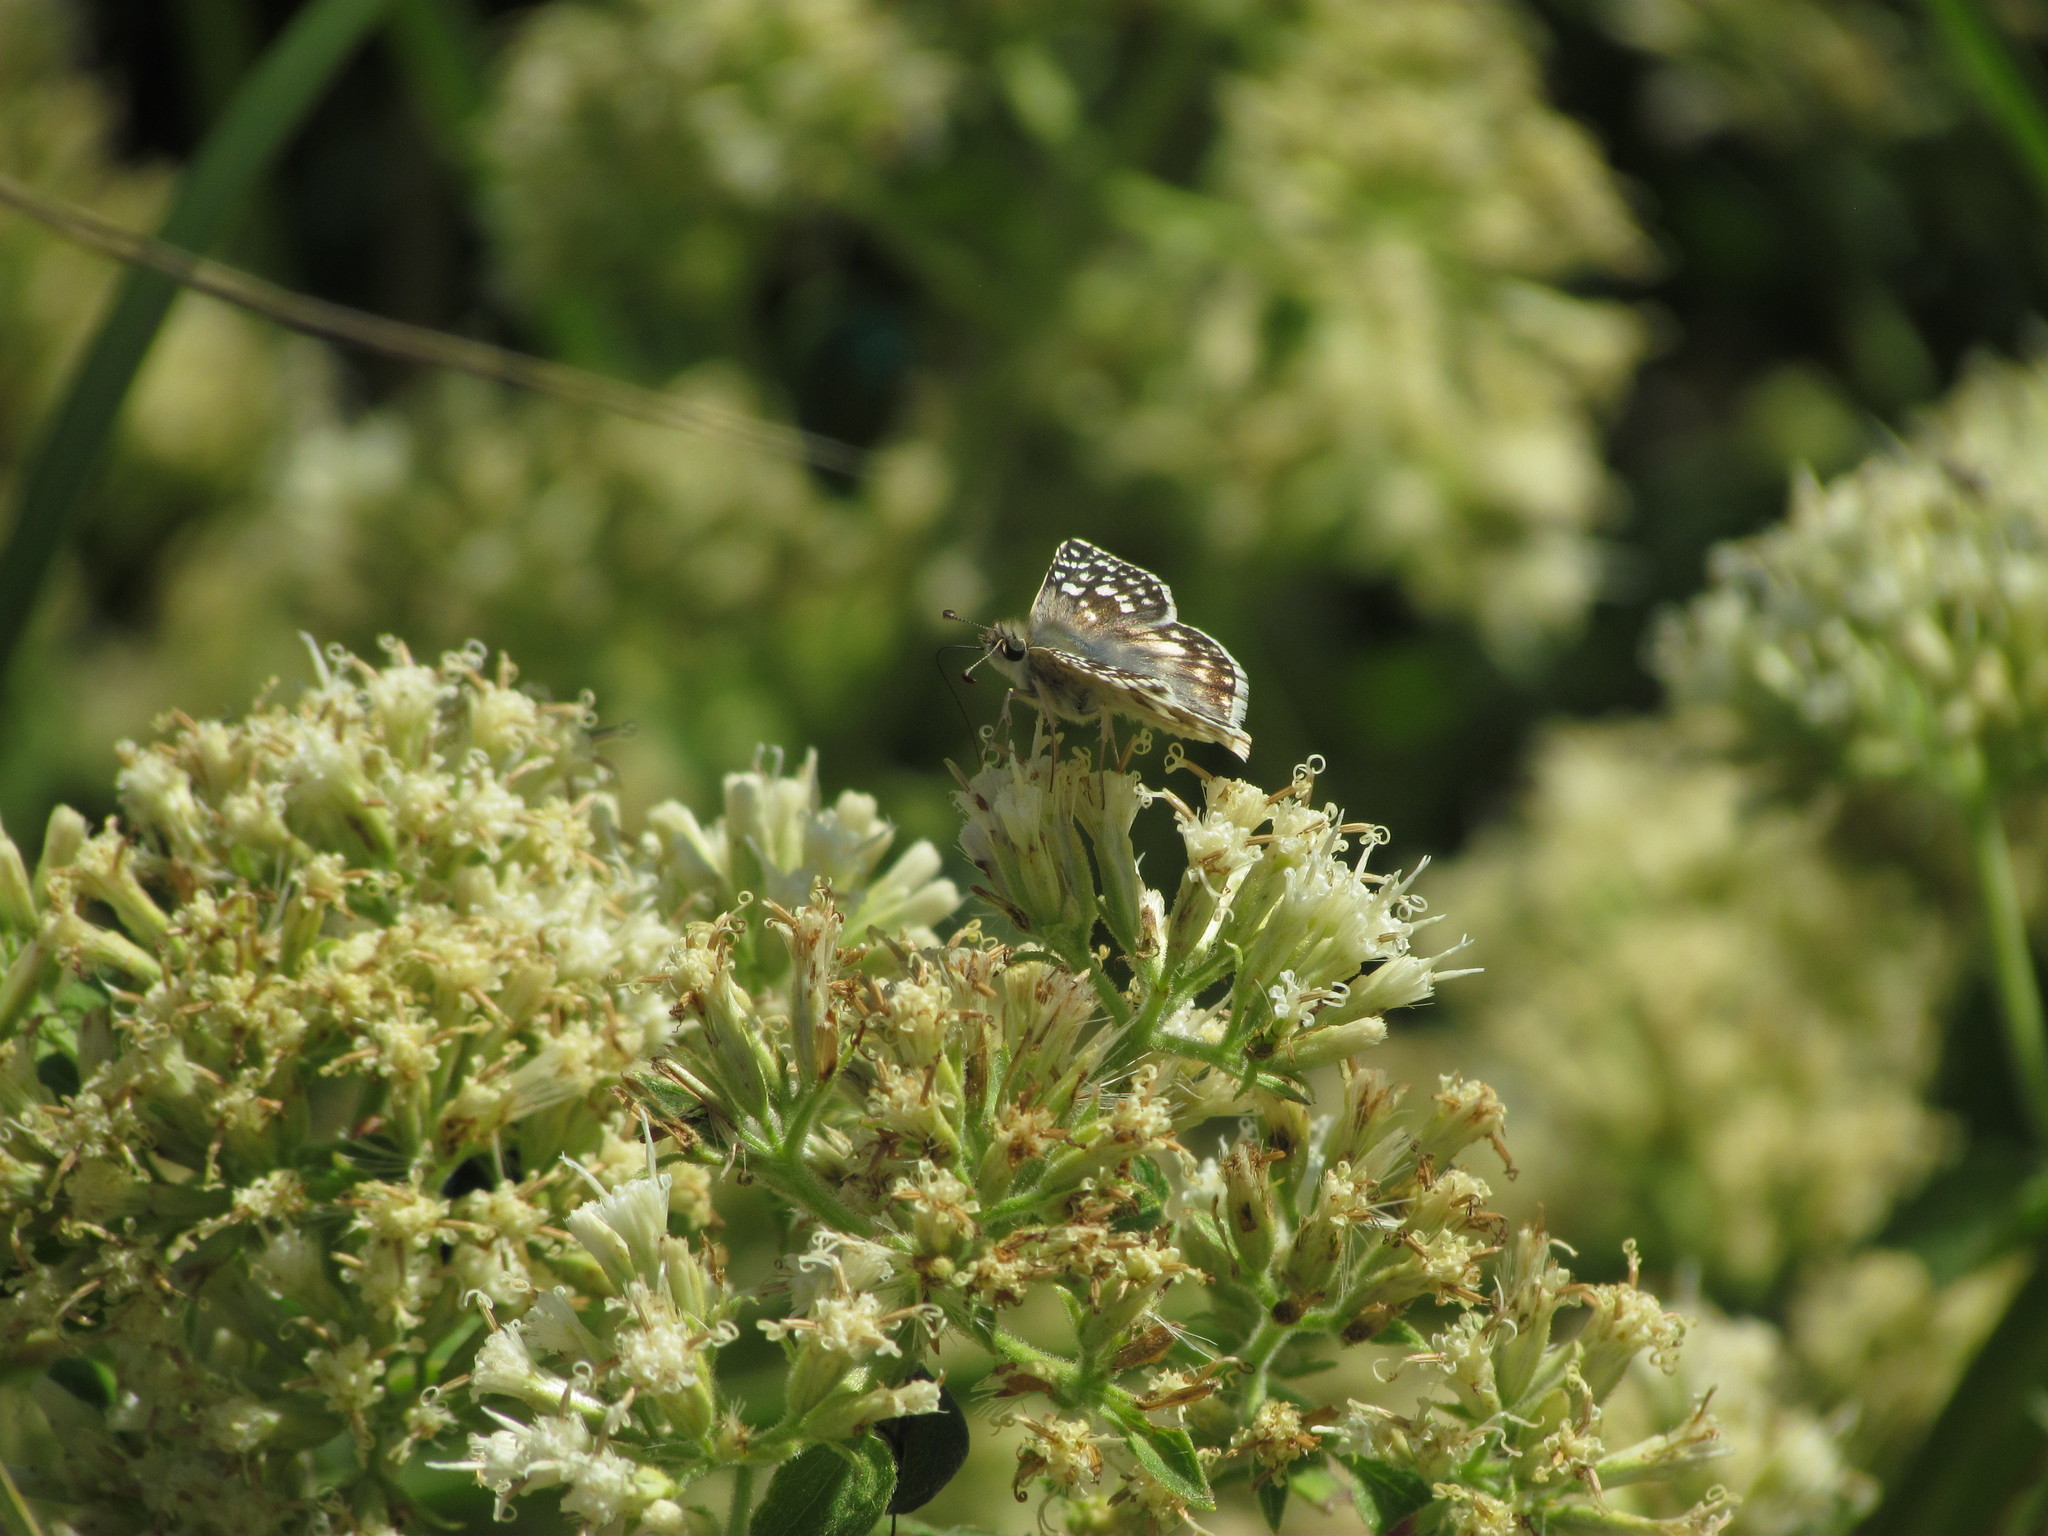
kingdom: Animalia
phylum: Arthropoda
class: Insecta
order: Lepidoptera
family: Hesperiidae
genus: Heliopetes
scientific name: Heliopetes americanus
